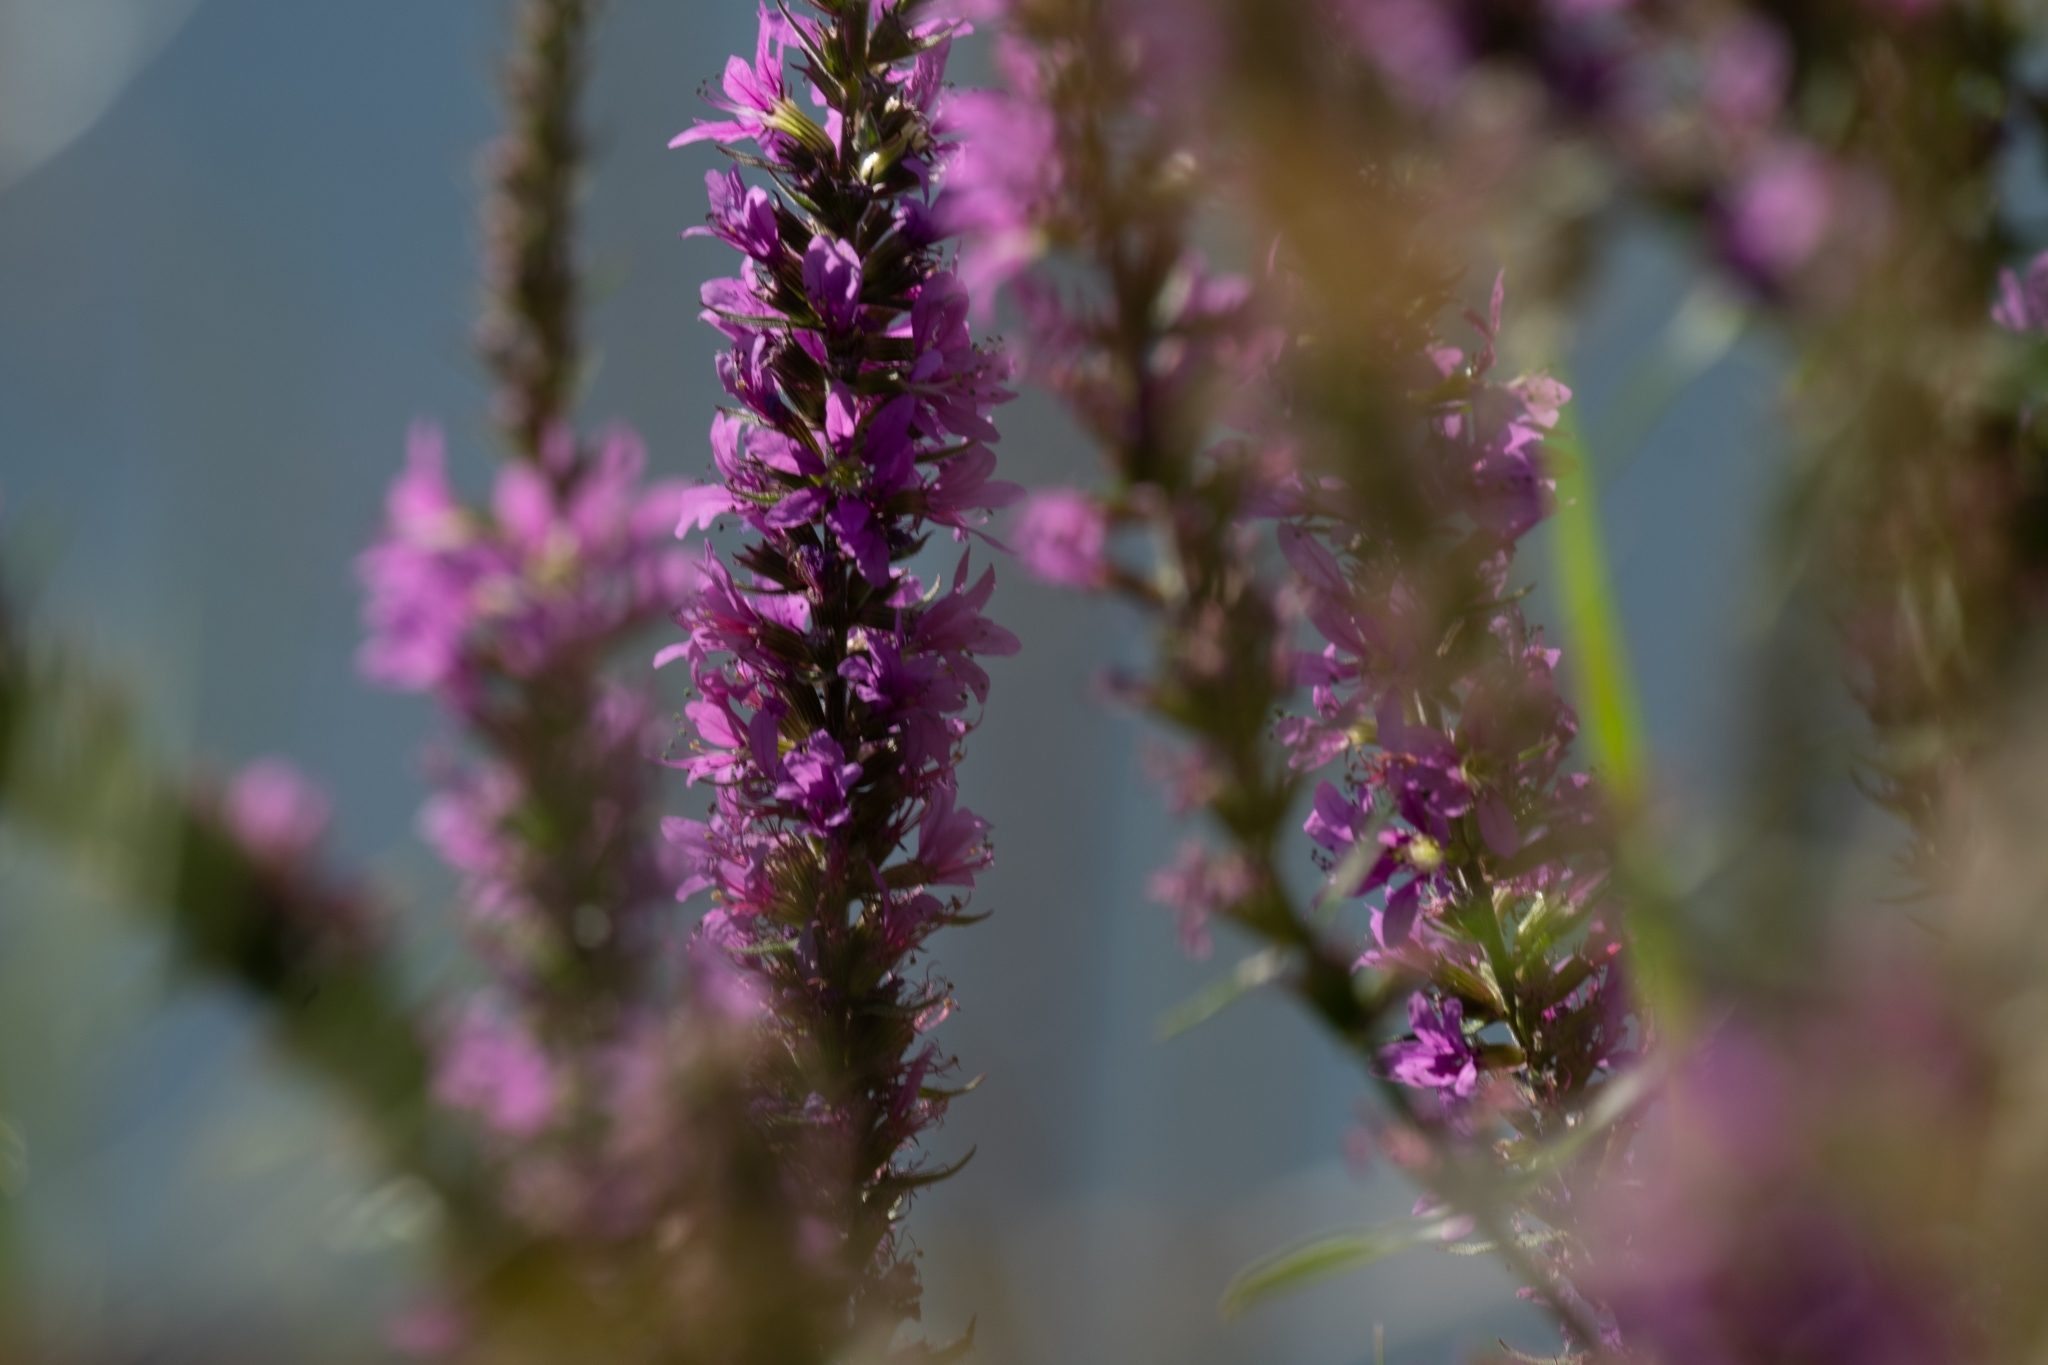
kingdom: Plantae
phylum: Tracheophyta
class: Magnoliopsida
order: Asterales
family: Asteraceae
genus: Liatris
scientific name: Liatris spicata
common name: Florist gayfeather
